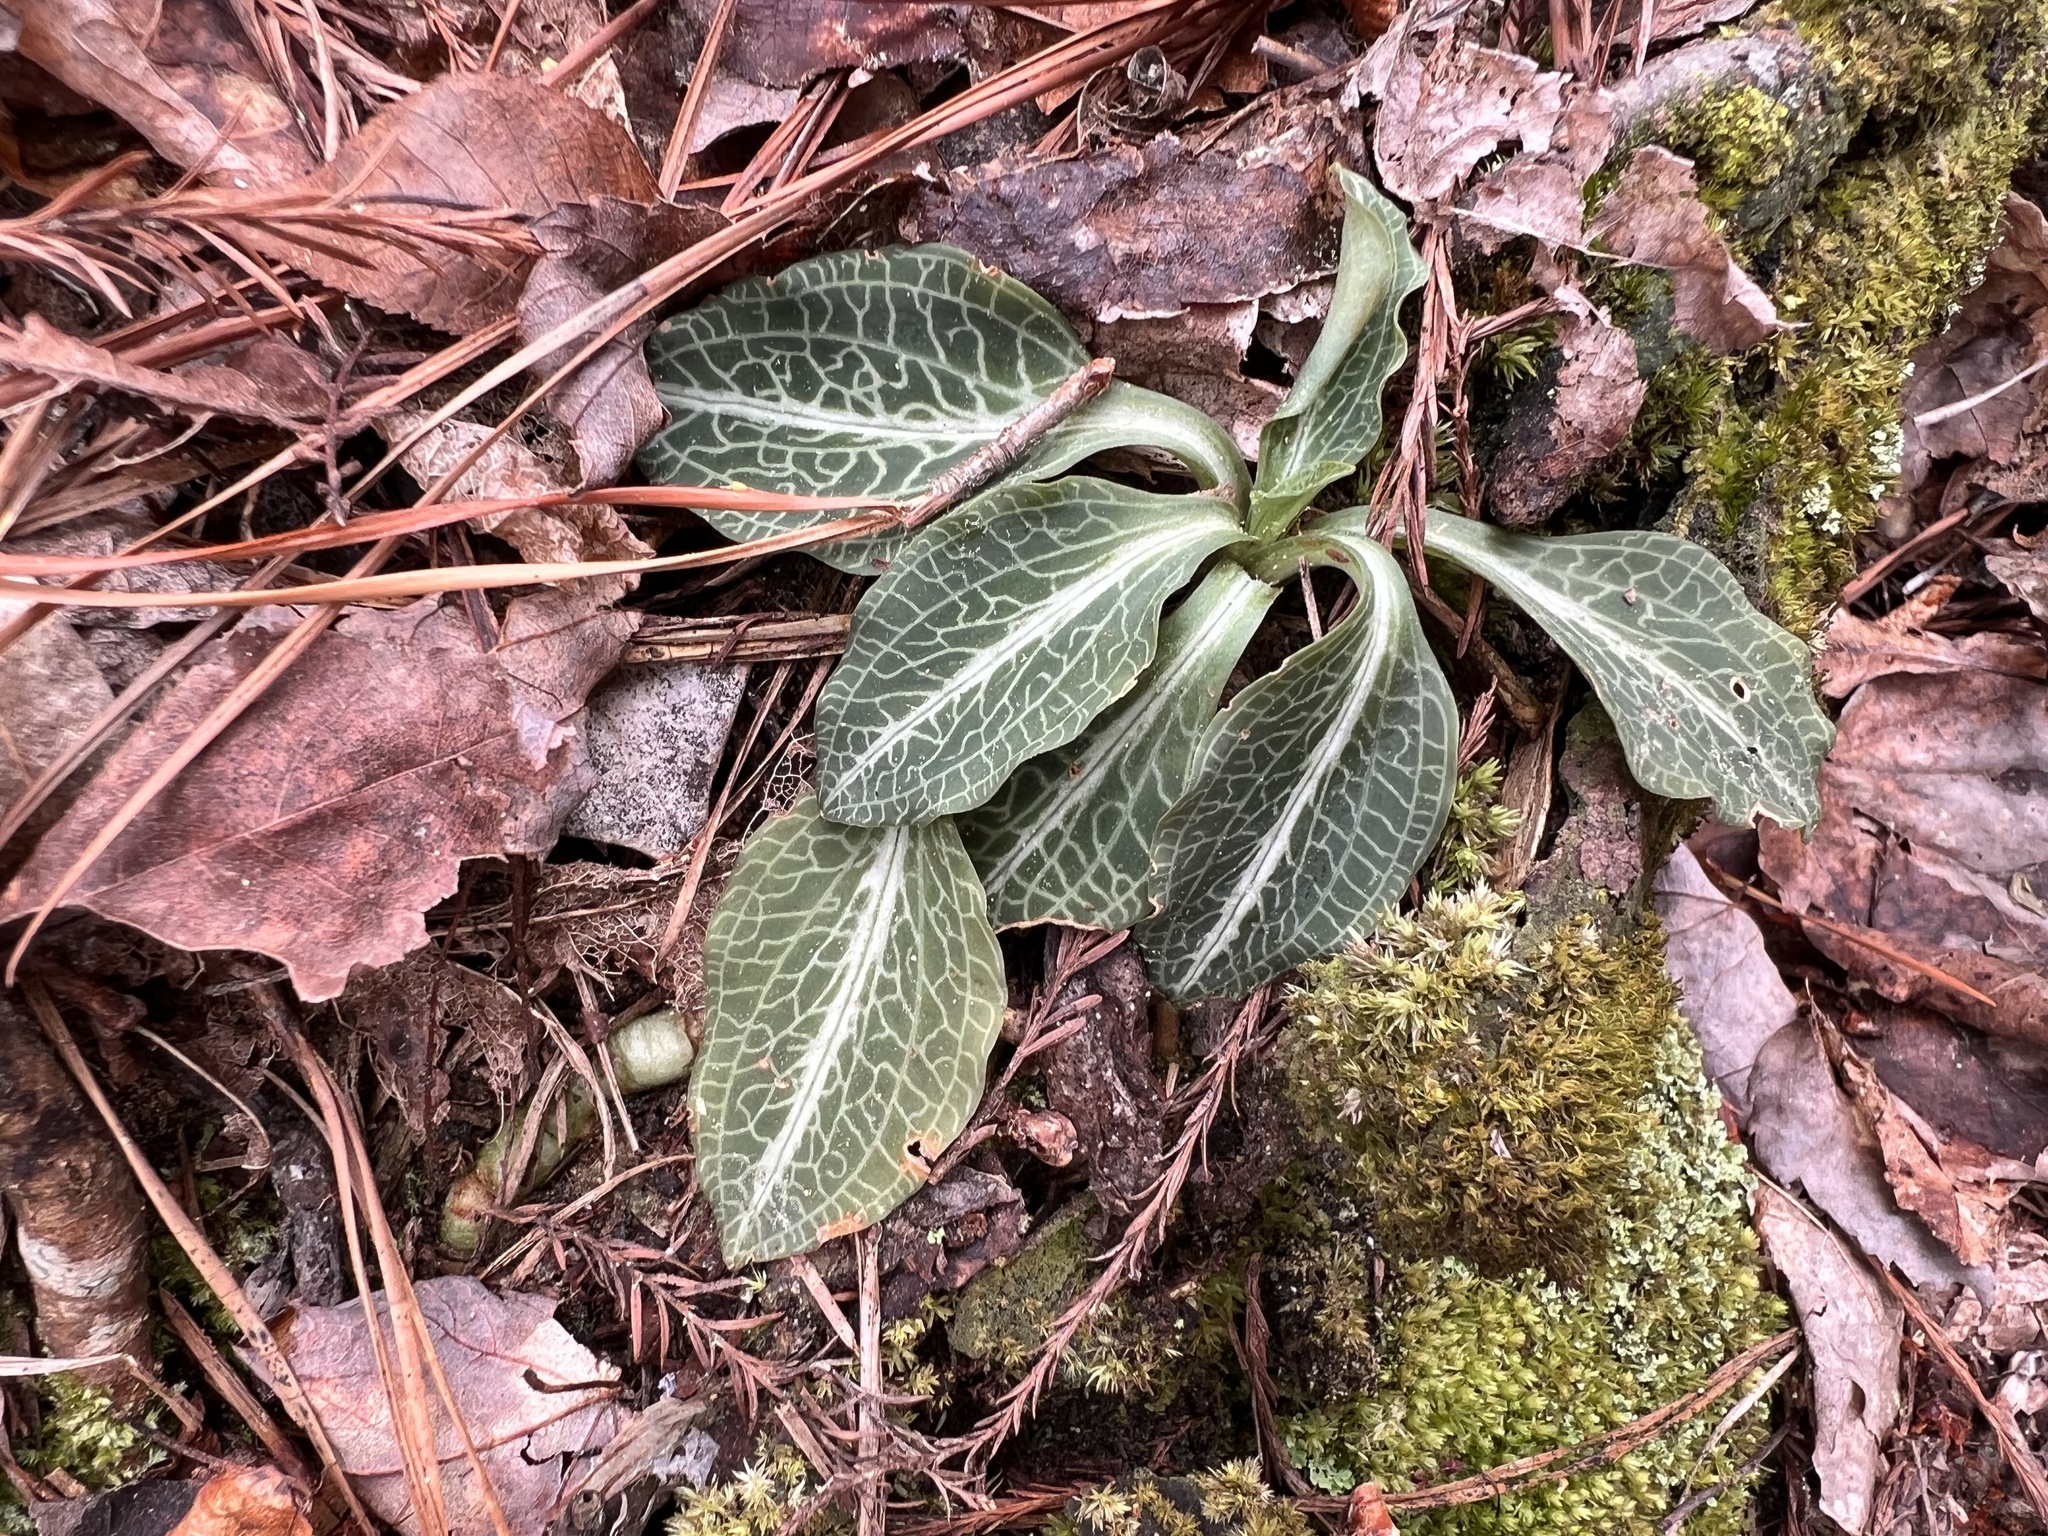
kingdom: Plantae
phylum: Tracheophyta
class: Liliopsida
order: Asparagales
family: Orchidaceae
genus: Goodyera
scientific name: Goodyera pubescens
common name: Downy rattlesnake-plantain
